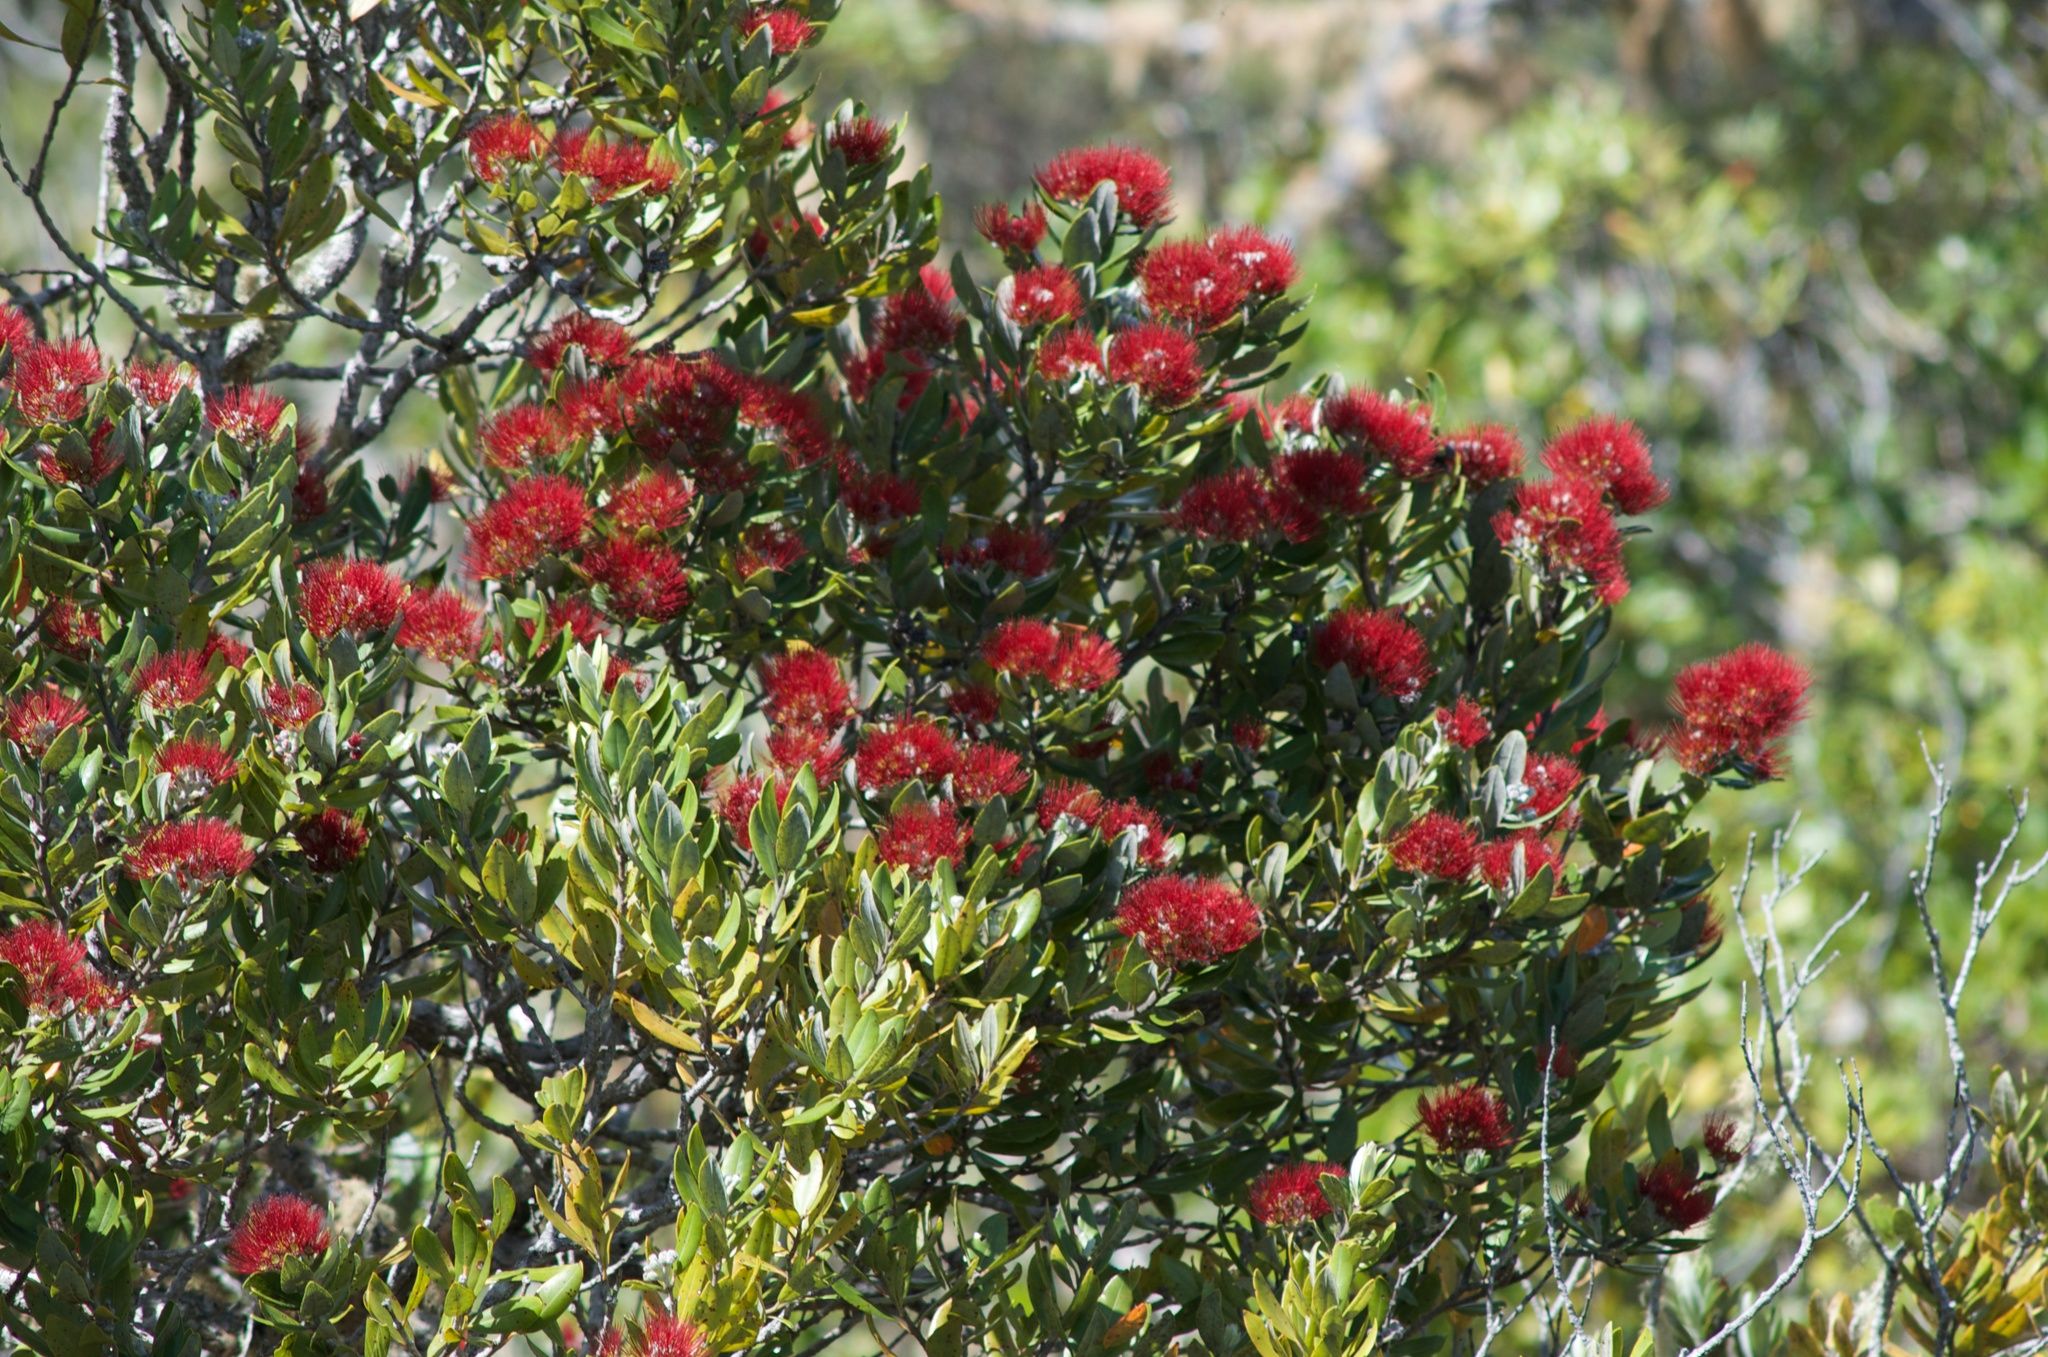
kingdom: Plantae
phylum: Tracheophyta
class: Magnoliopsida
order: Myrtales
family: Myrtaceae
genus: Metrosideros
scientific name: Metrosideros excelsa
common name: New zealand christmastree
